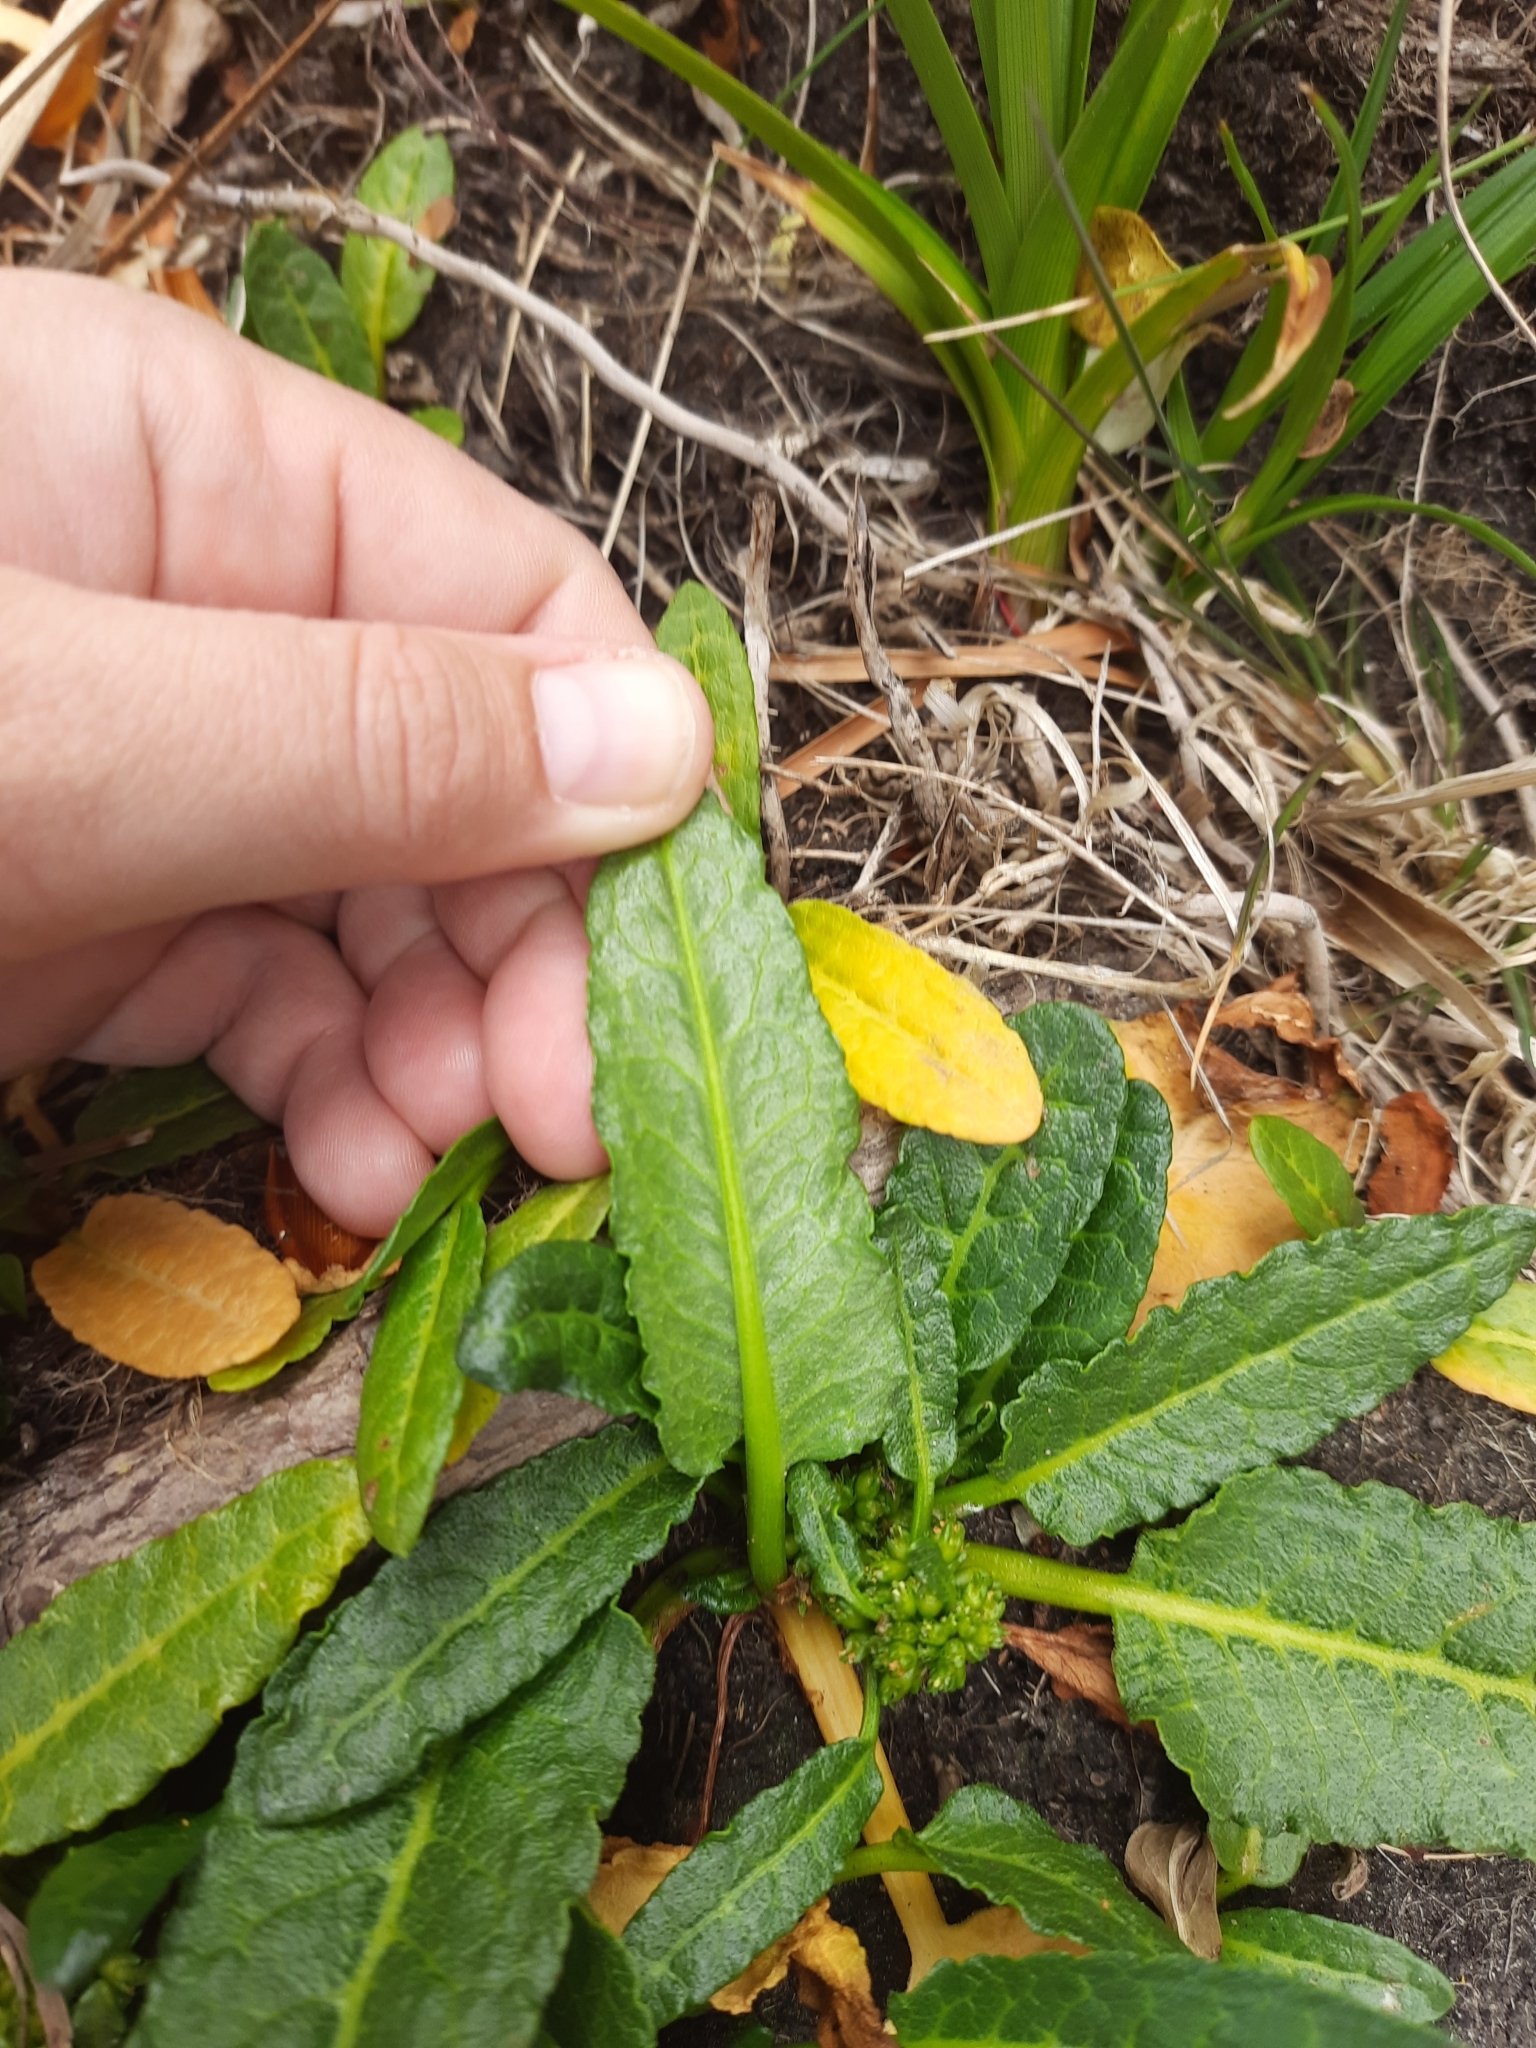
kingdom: Plantae
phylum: Tracheophyta
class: Magnoliopsida
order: Caryophyllales
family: Polygonaceae
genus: Rumex
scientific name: Rumex neglectus
